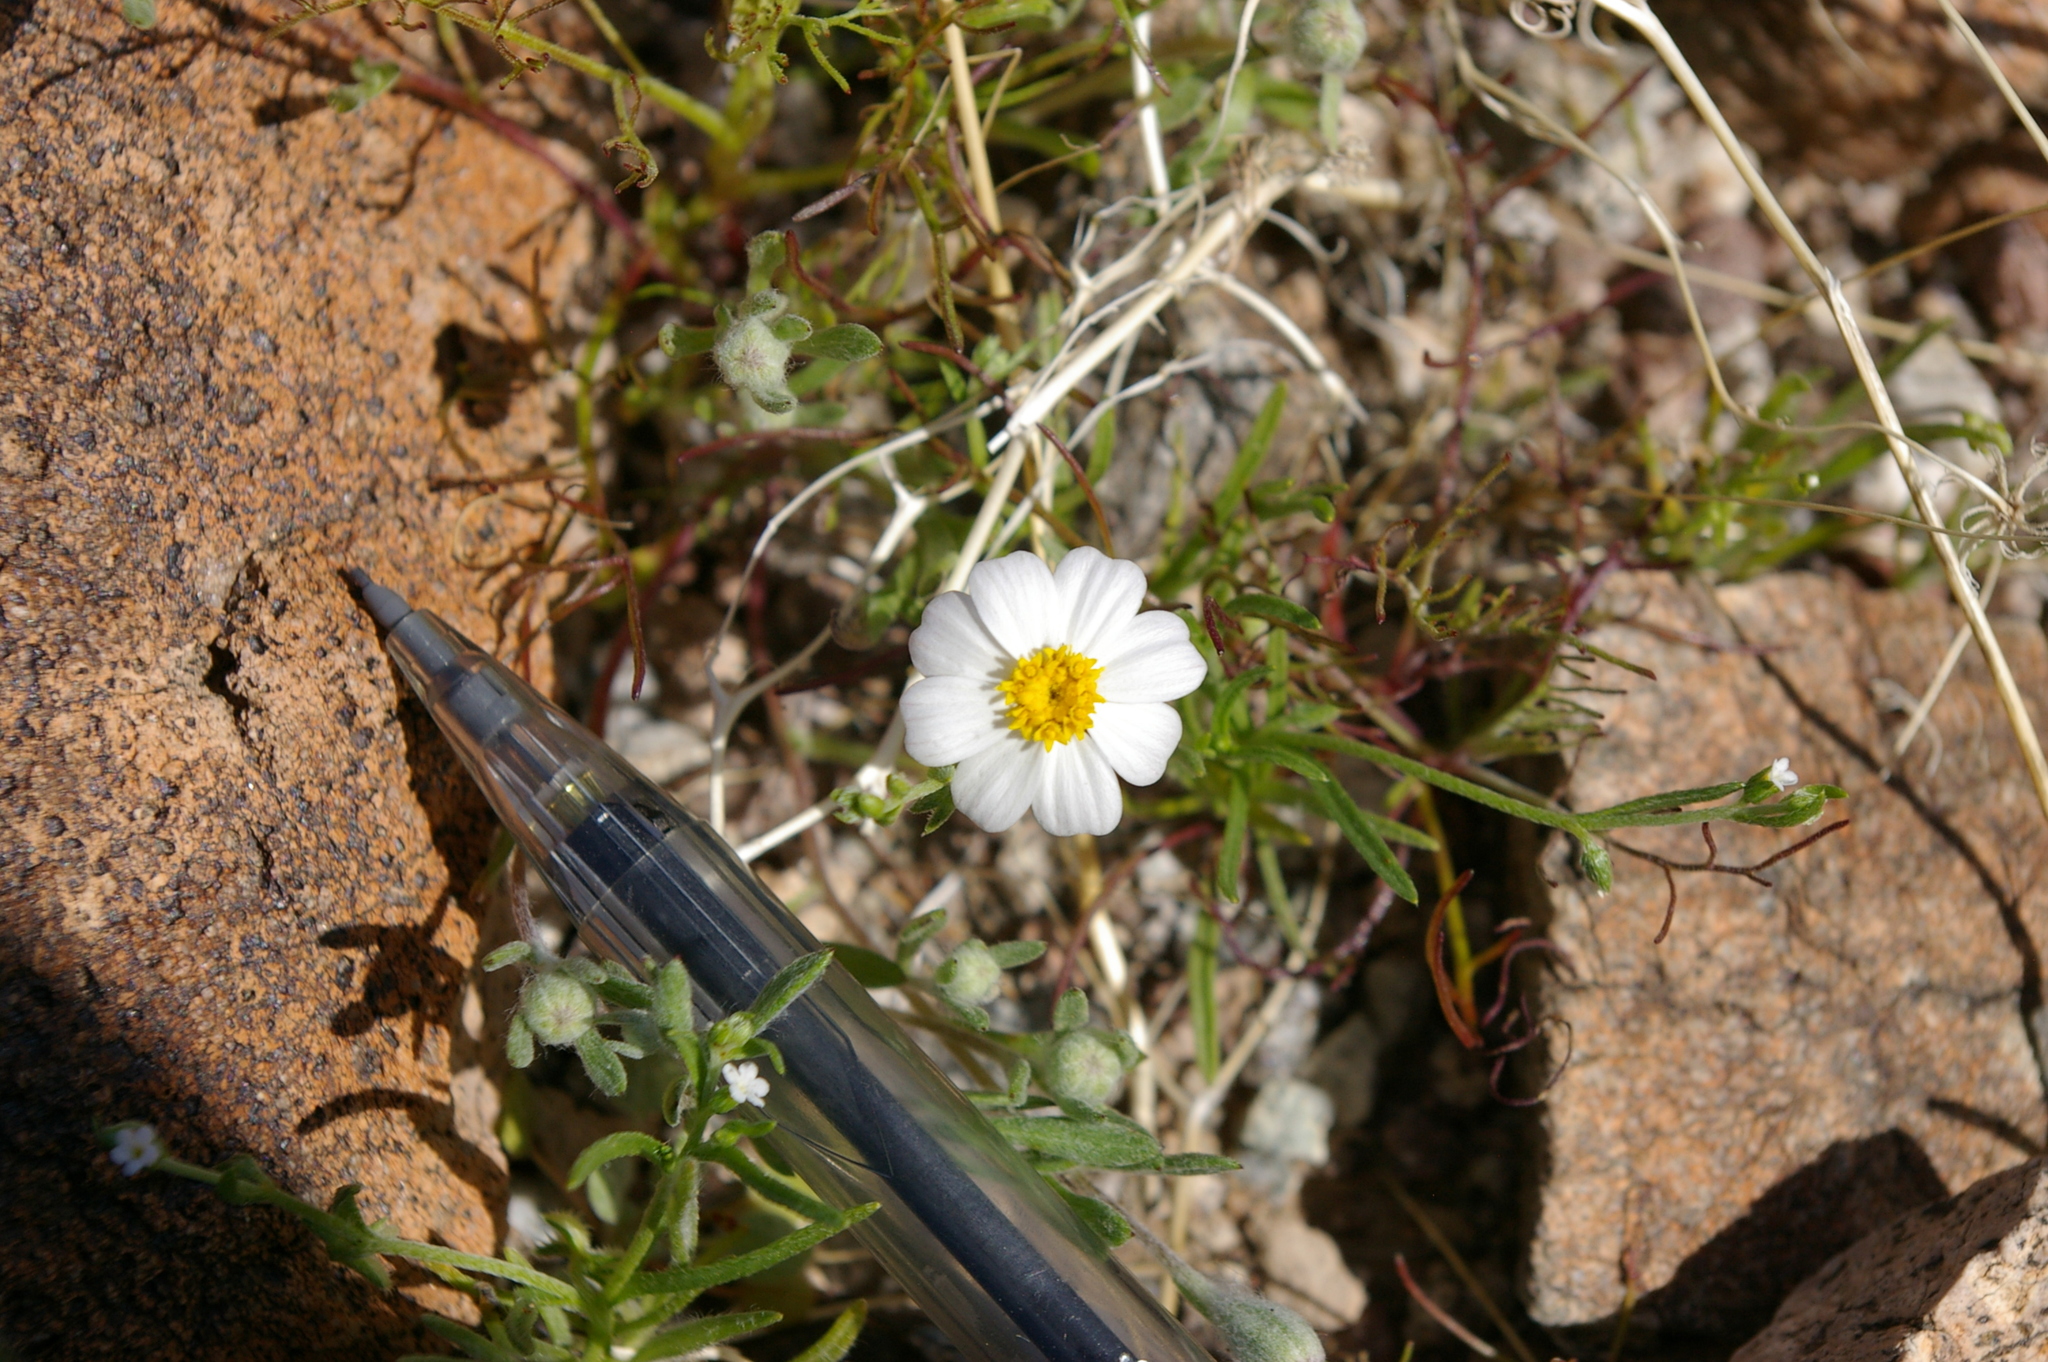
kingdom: Plantae
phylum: Tracheophyta
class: Magnoliopsida
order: Asterales
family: Asteraceae
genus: Eriophyllum
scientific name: Eriophyllum lanosum
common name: White easter-bonnets
